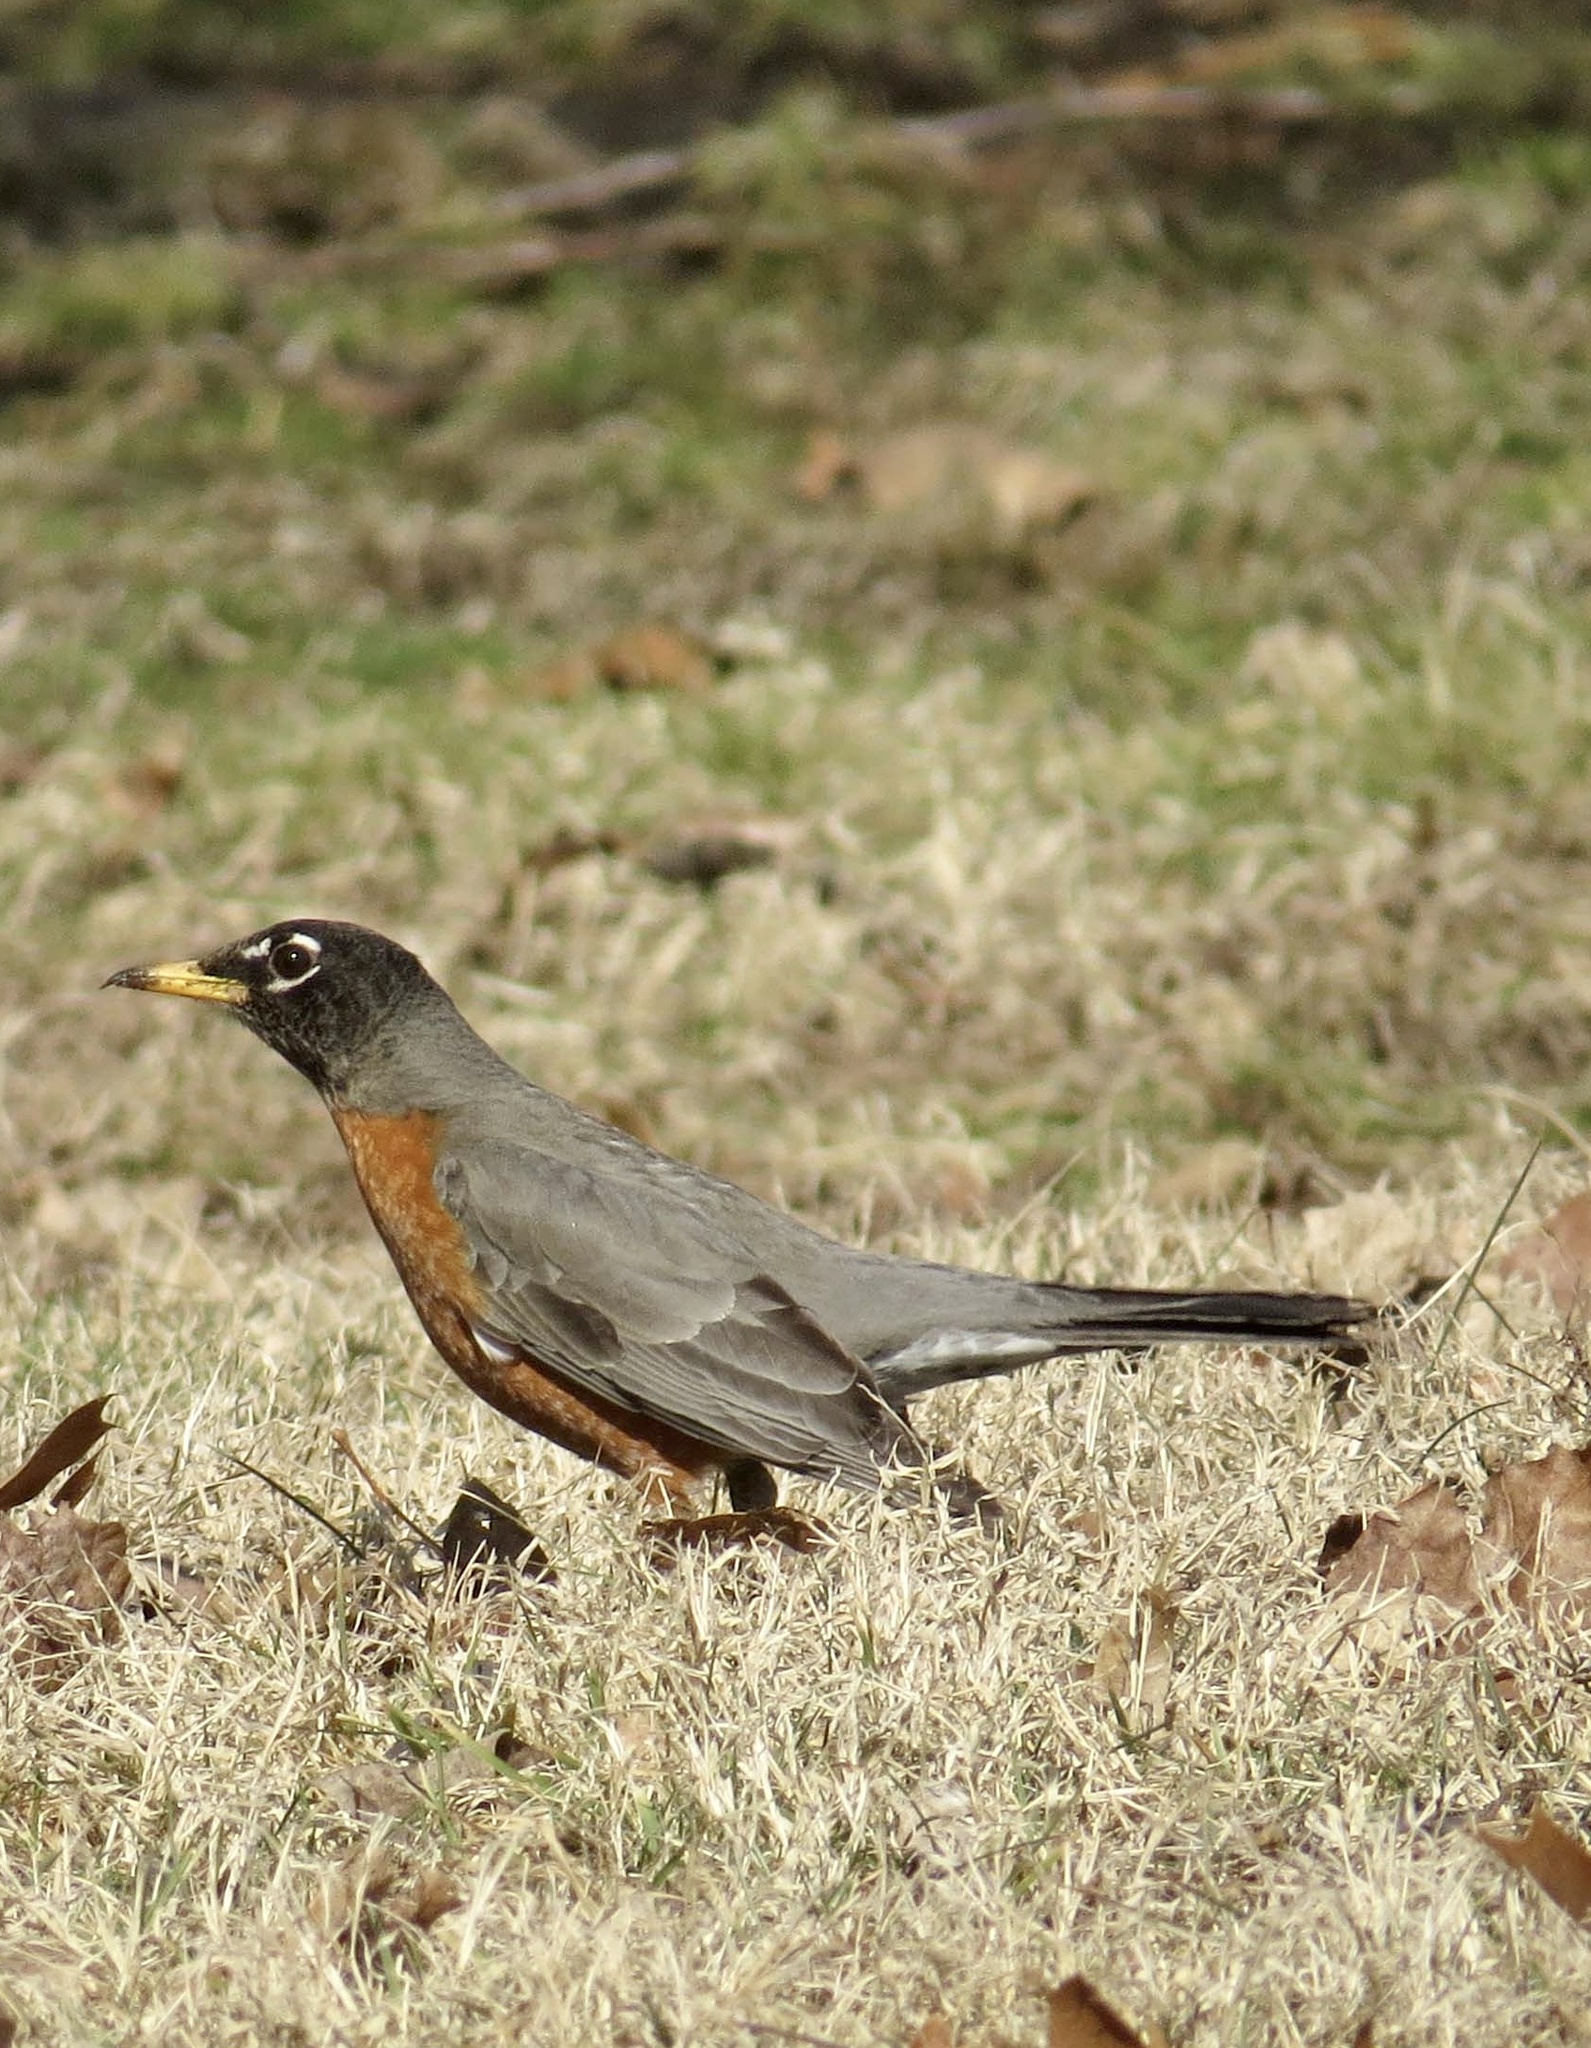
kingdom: Animalia
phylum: Chordata
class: Aves
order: Passeriformes
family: Turdidae
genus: Turdus
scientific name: Turdus migratorius
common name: American robin
